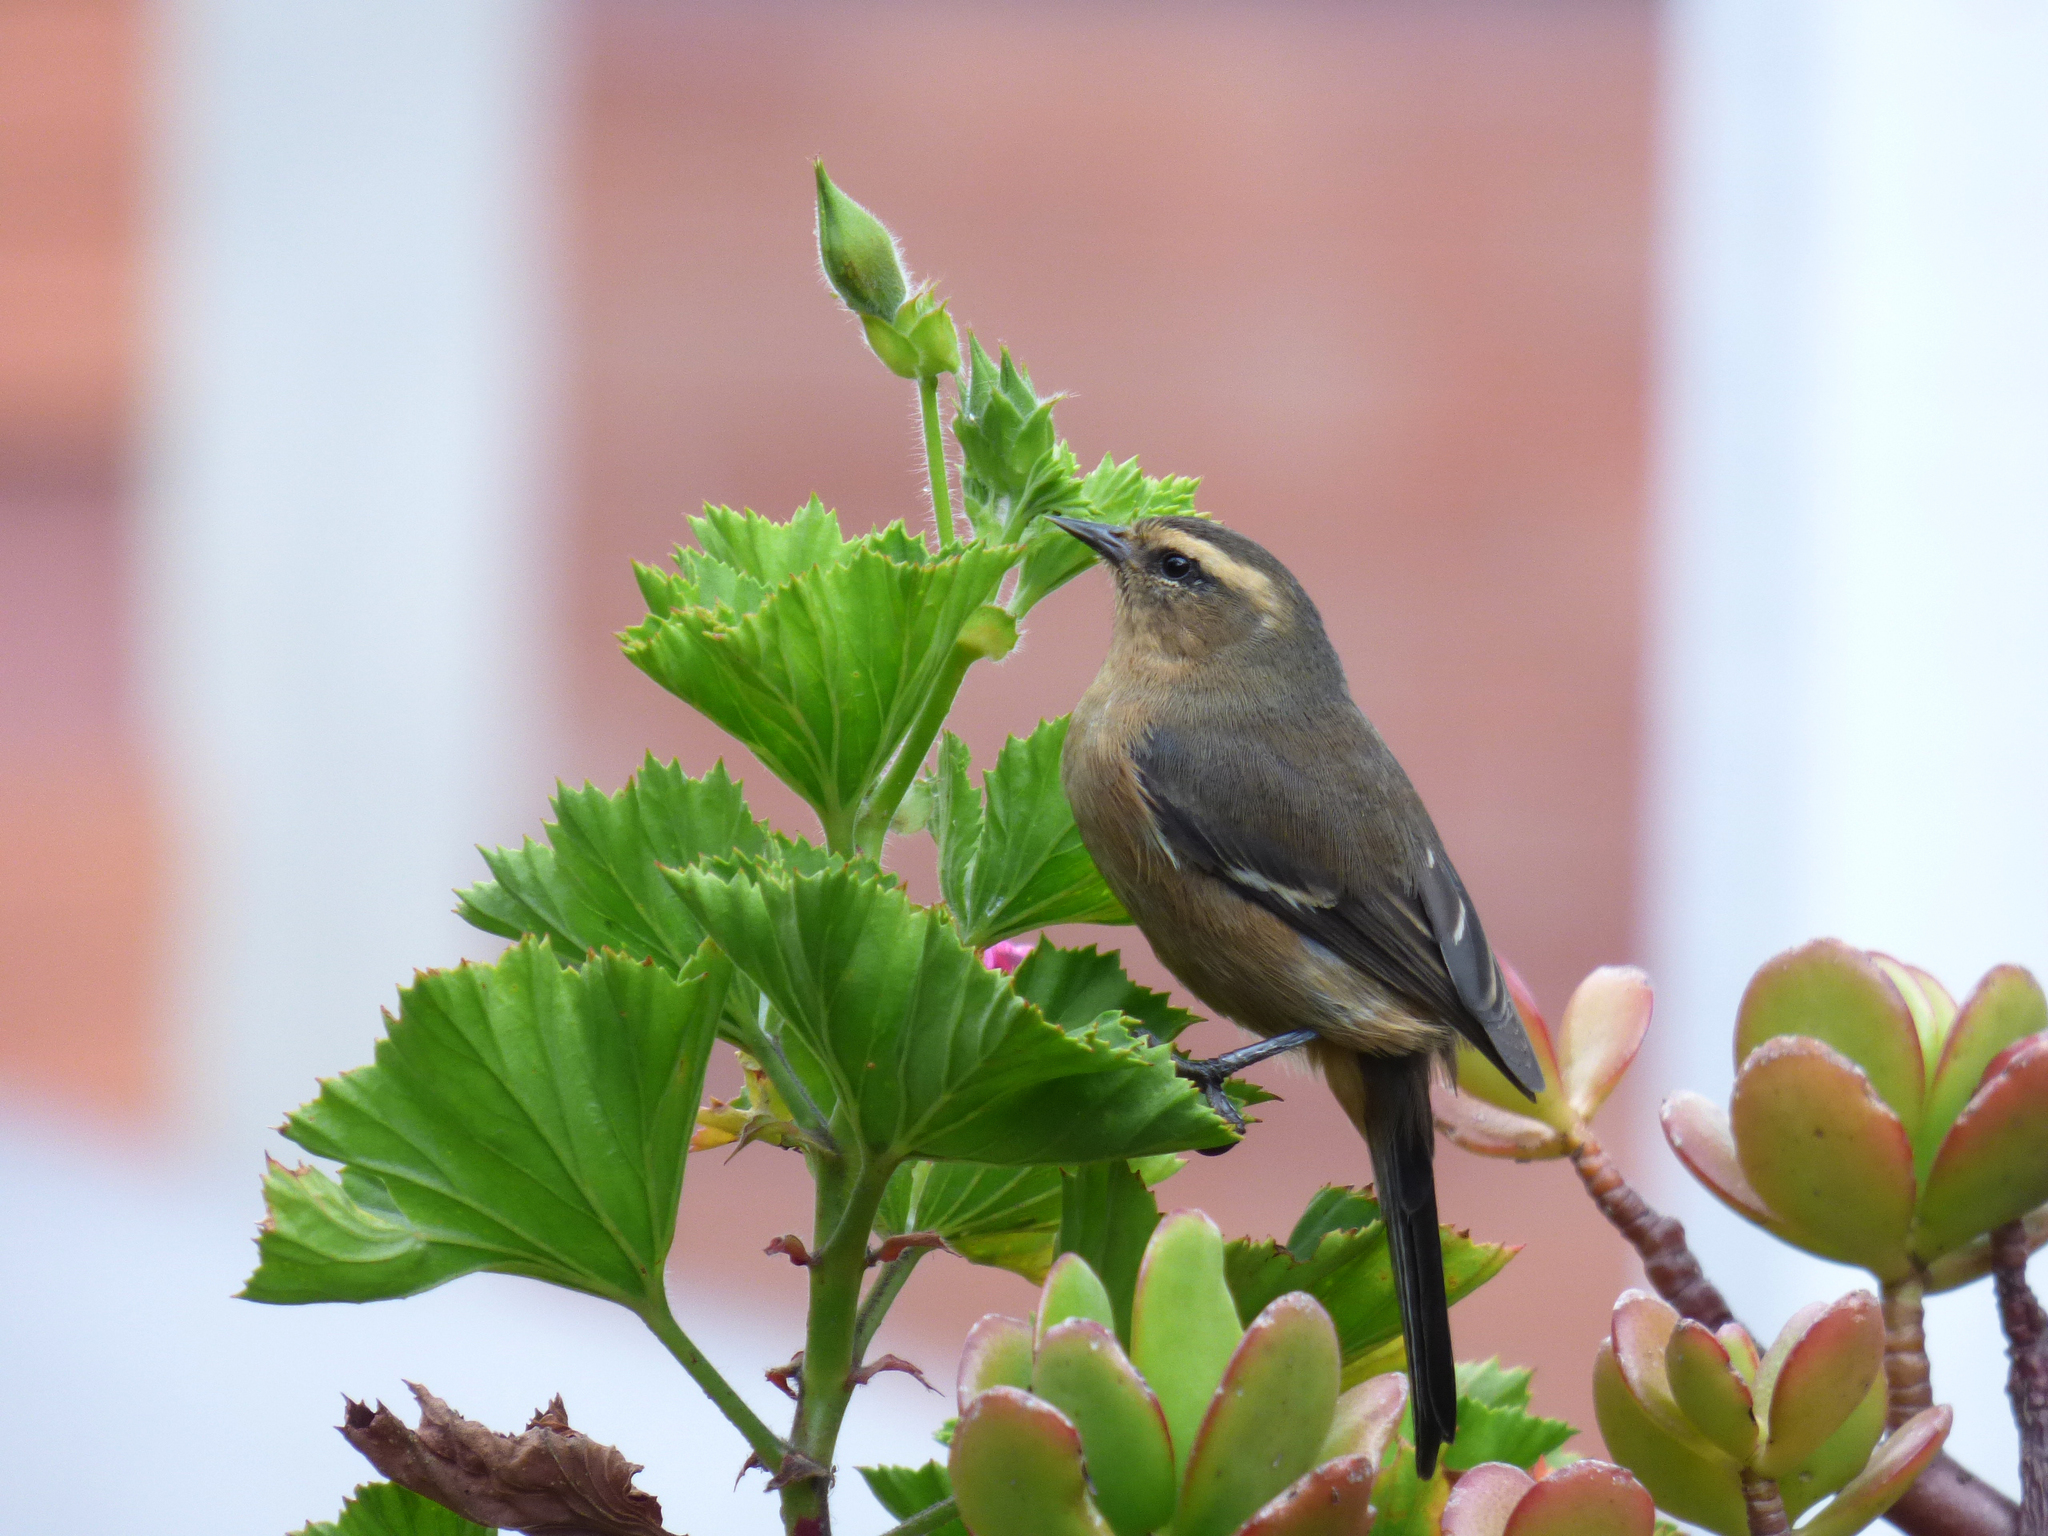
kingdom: Animalia
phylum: Chordata
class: Aves
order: Passeriformes
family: Thraupidae
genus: Conirostrum
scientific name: Conirostrum cinereum
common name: Cinereous conebill
